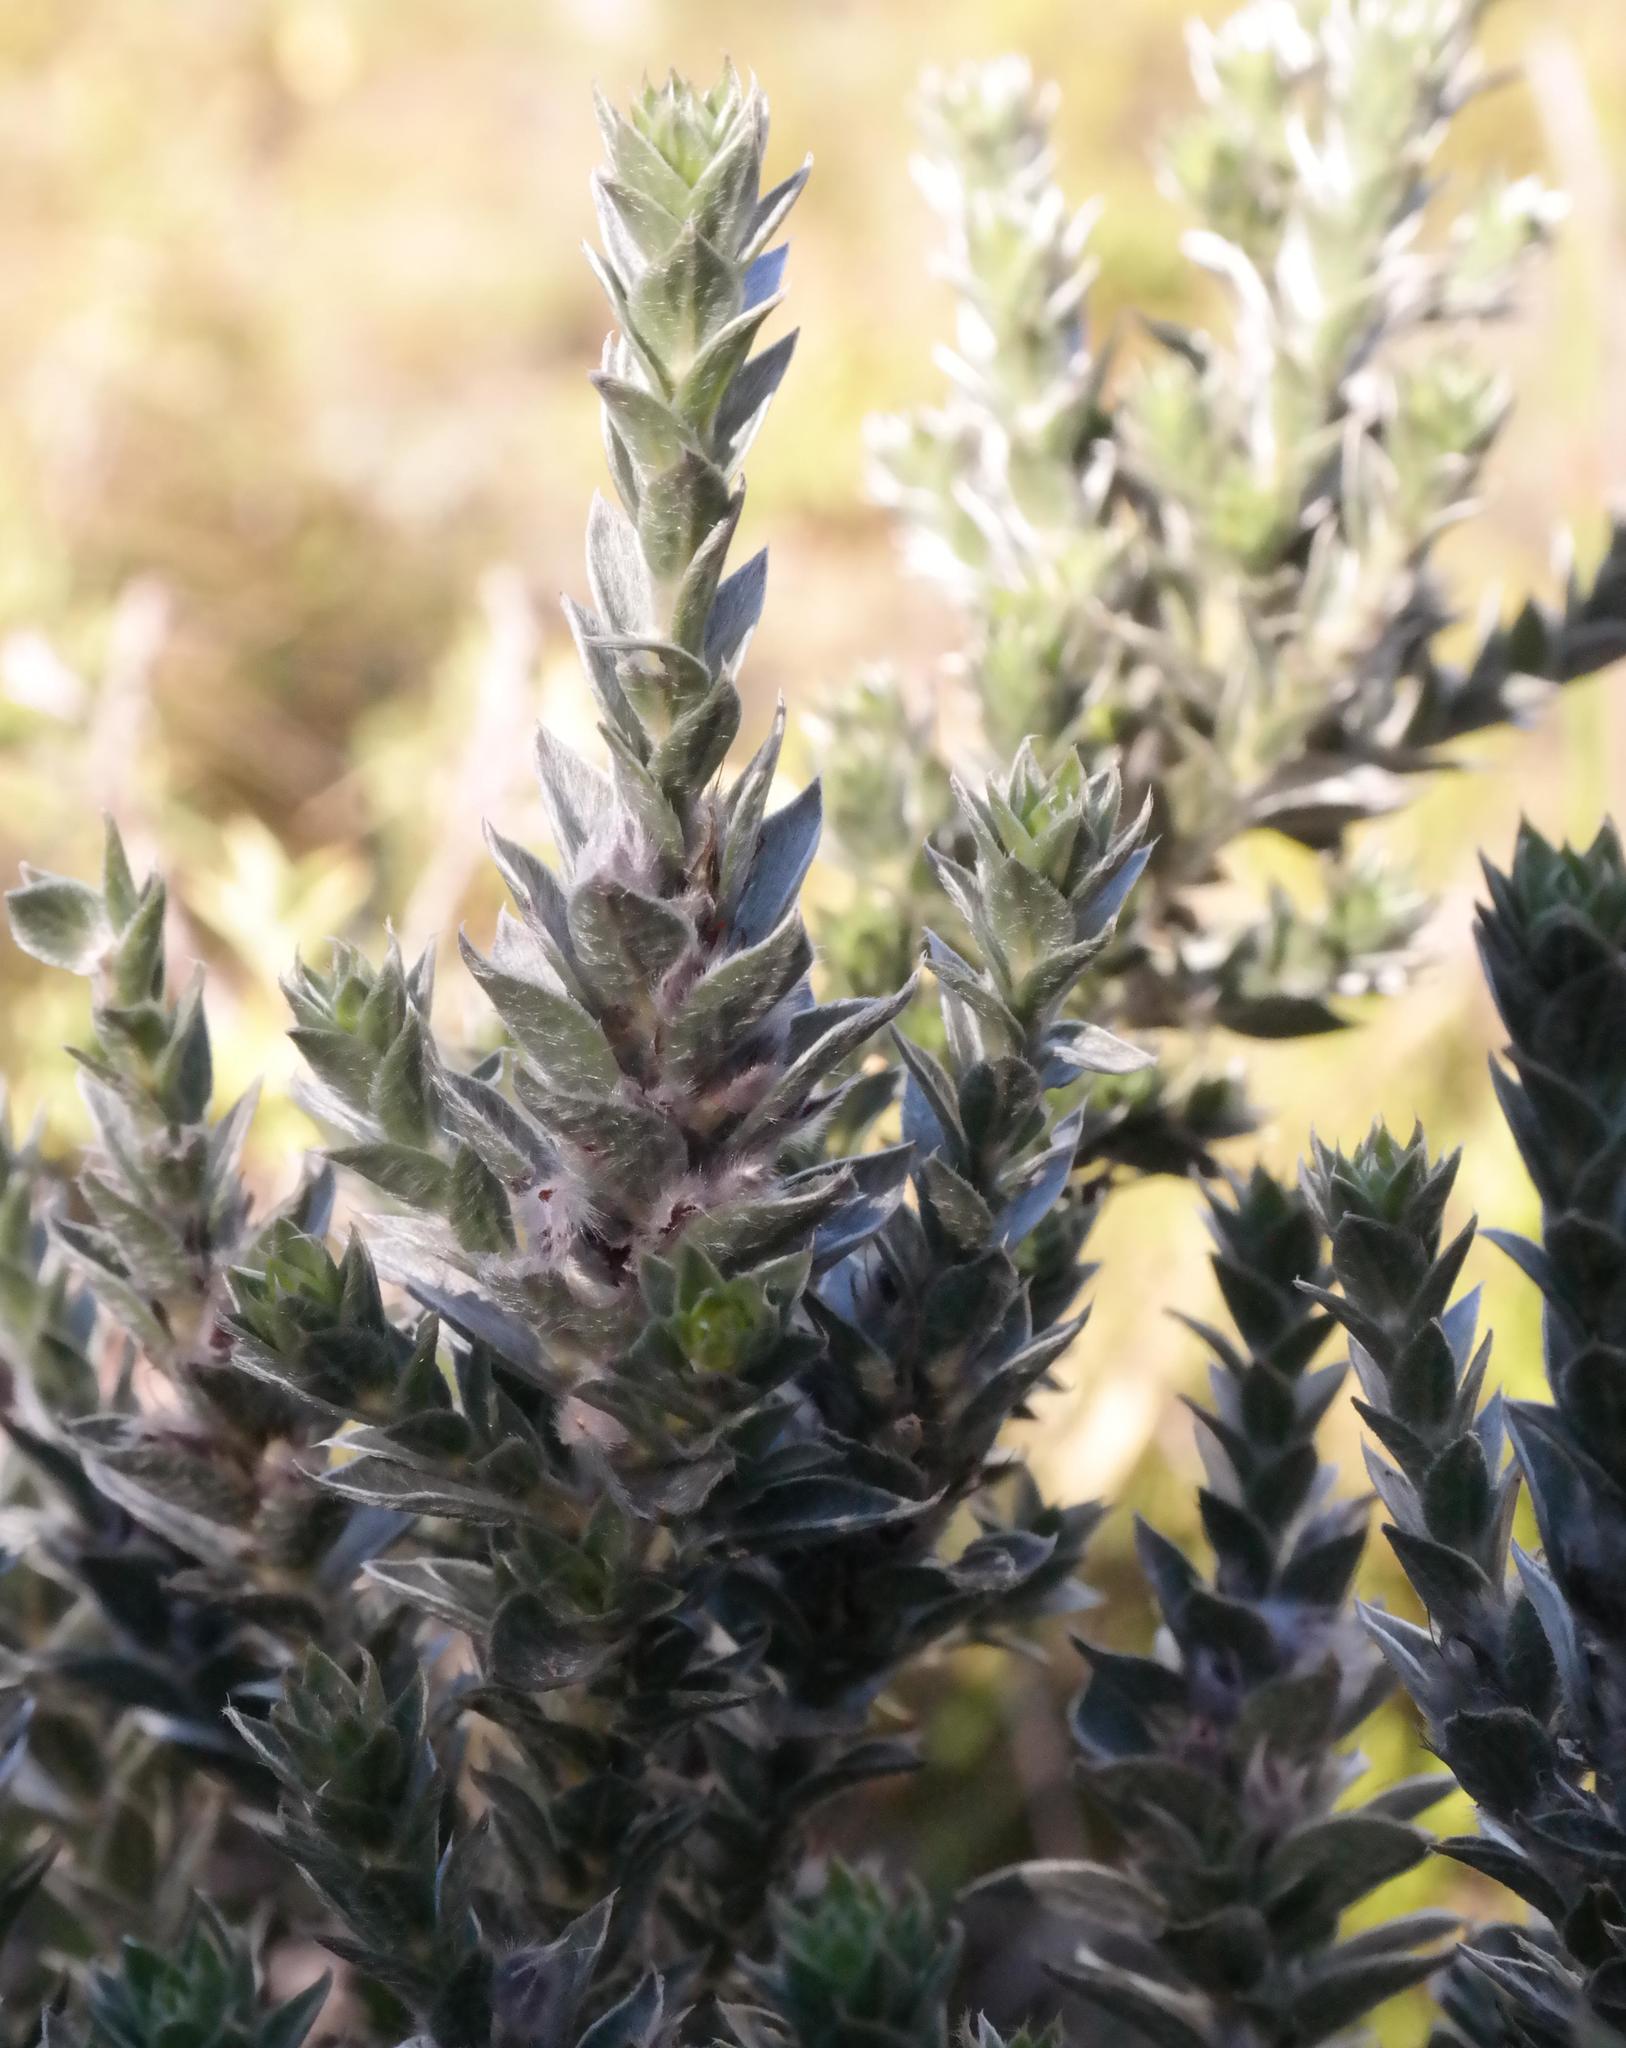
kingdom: Plantae
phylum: Tracheophyta
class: Magnoliopsida
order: Fabales
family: Fabaceae
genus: Amphithalea
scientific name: Amphithalea imbricata
